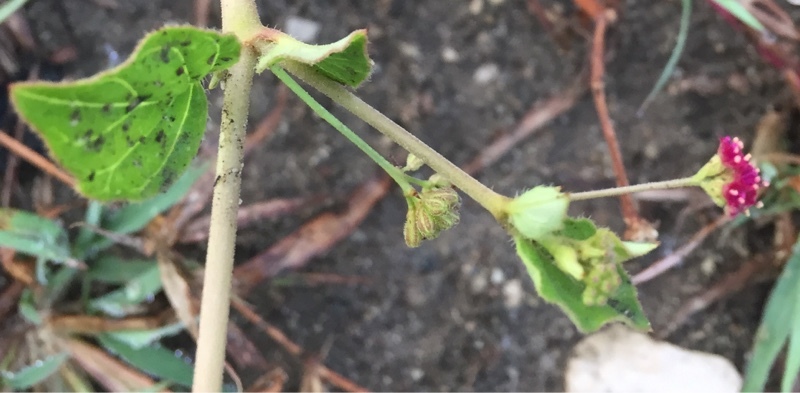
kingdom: Plantae
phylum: Tracheophyta
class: Magnoliopsida
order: Caryophyllales
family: Nyctaginaceae
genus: Boerhavia
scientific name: Boerhavia coccinea
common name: Scarlet spiderling
